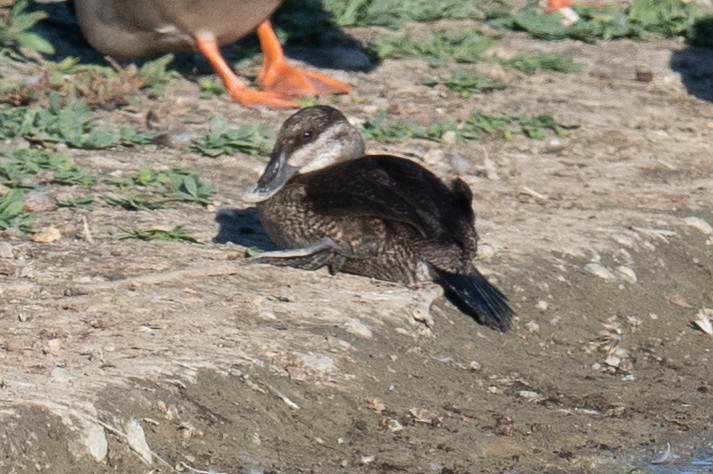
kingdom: Animalia
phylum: Chordata
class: Aves
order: Anseriformes
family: Anatidae
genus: Oxyura
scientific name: Oxyura jamaicensis
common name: Ruddy duck
